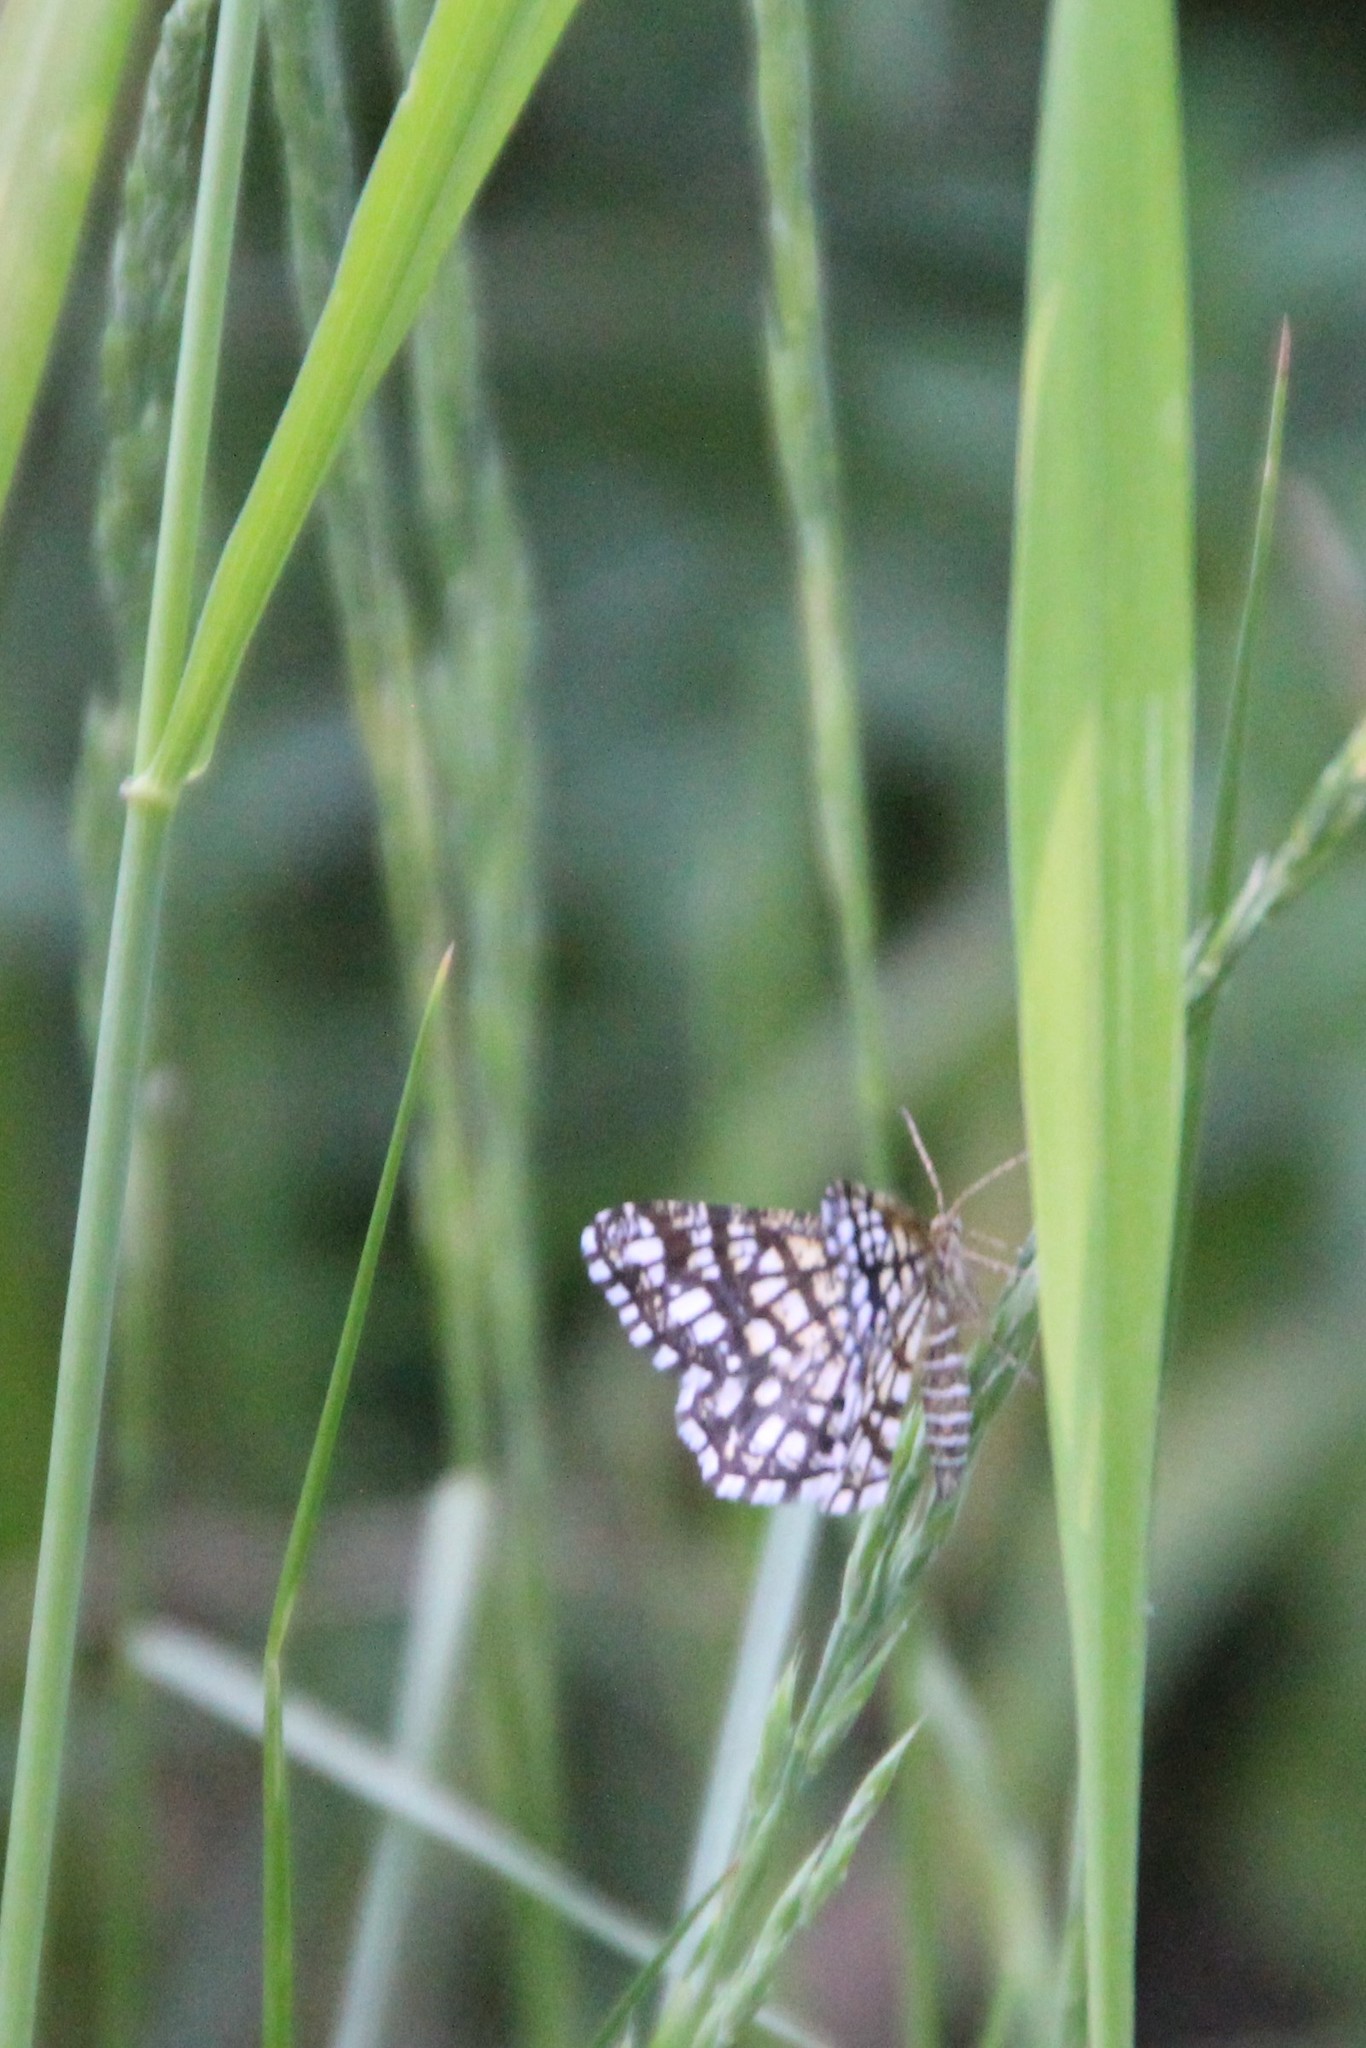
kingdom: Animalia
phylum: Arthropoda
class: Insecta
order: Lepidoptera
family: Geometridae
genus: Chiasmia
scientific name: Chiasmia clathrata
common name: Latticed heath
